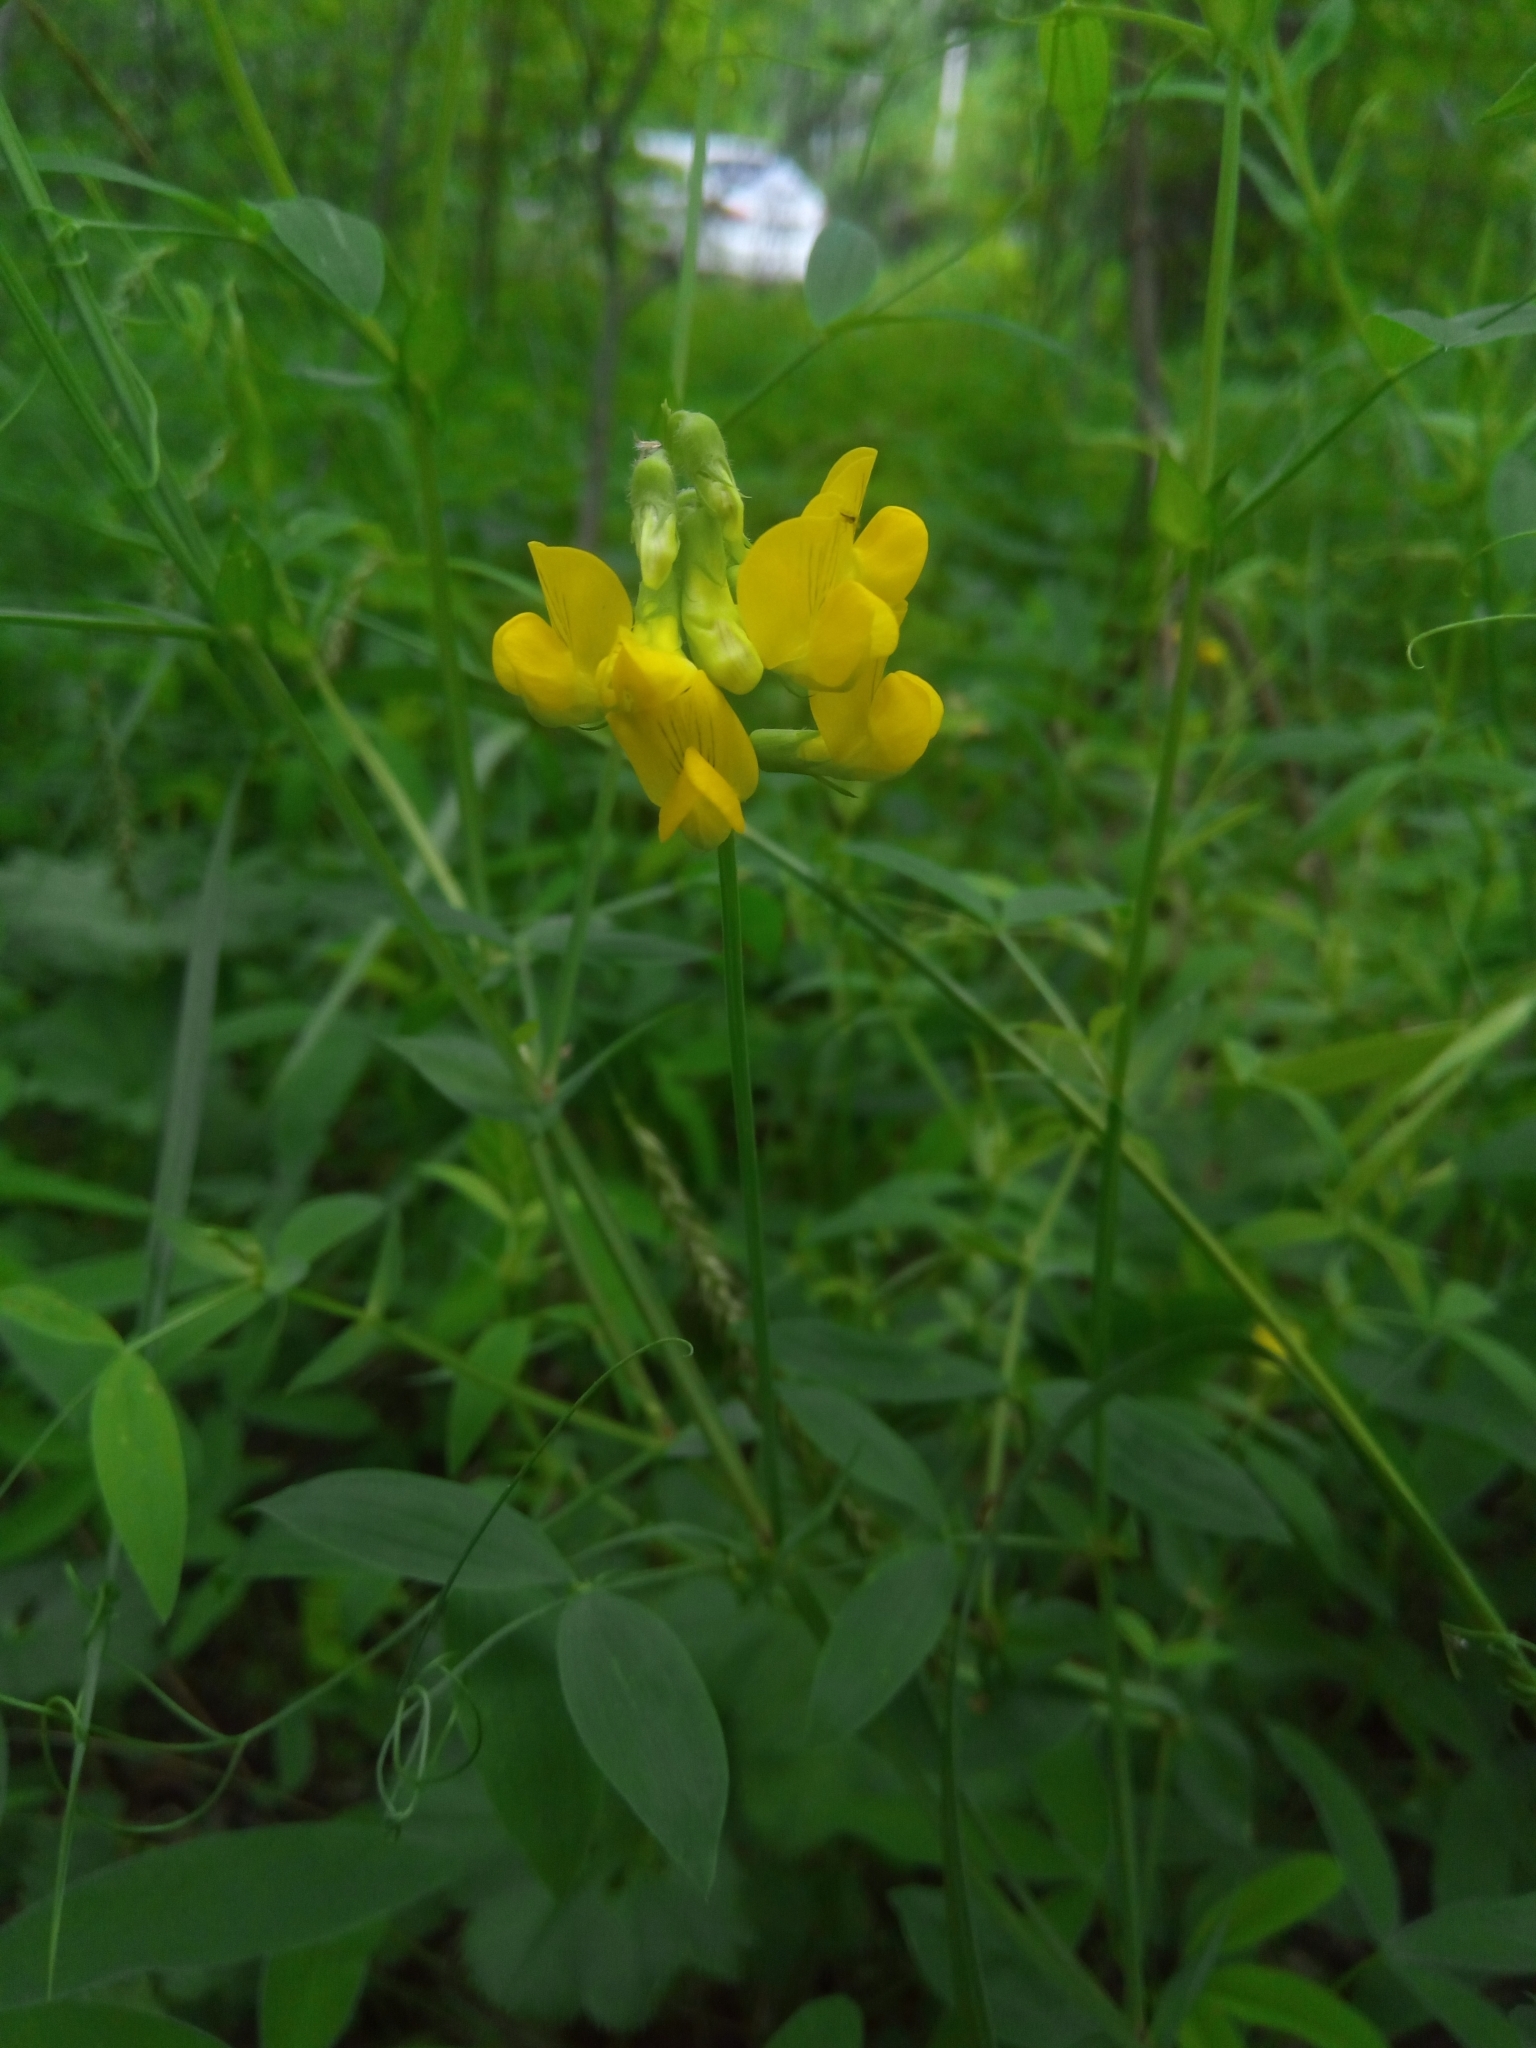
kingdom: Plantae
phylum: Tracheophyta
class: Magnoliopsida
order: Fabales
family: Fabaceae
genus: Lathyrus
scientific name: Lathyrus pratensis
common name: Meadow vetchling
